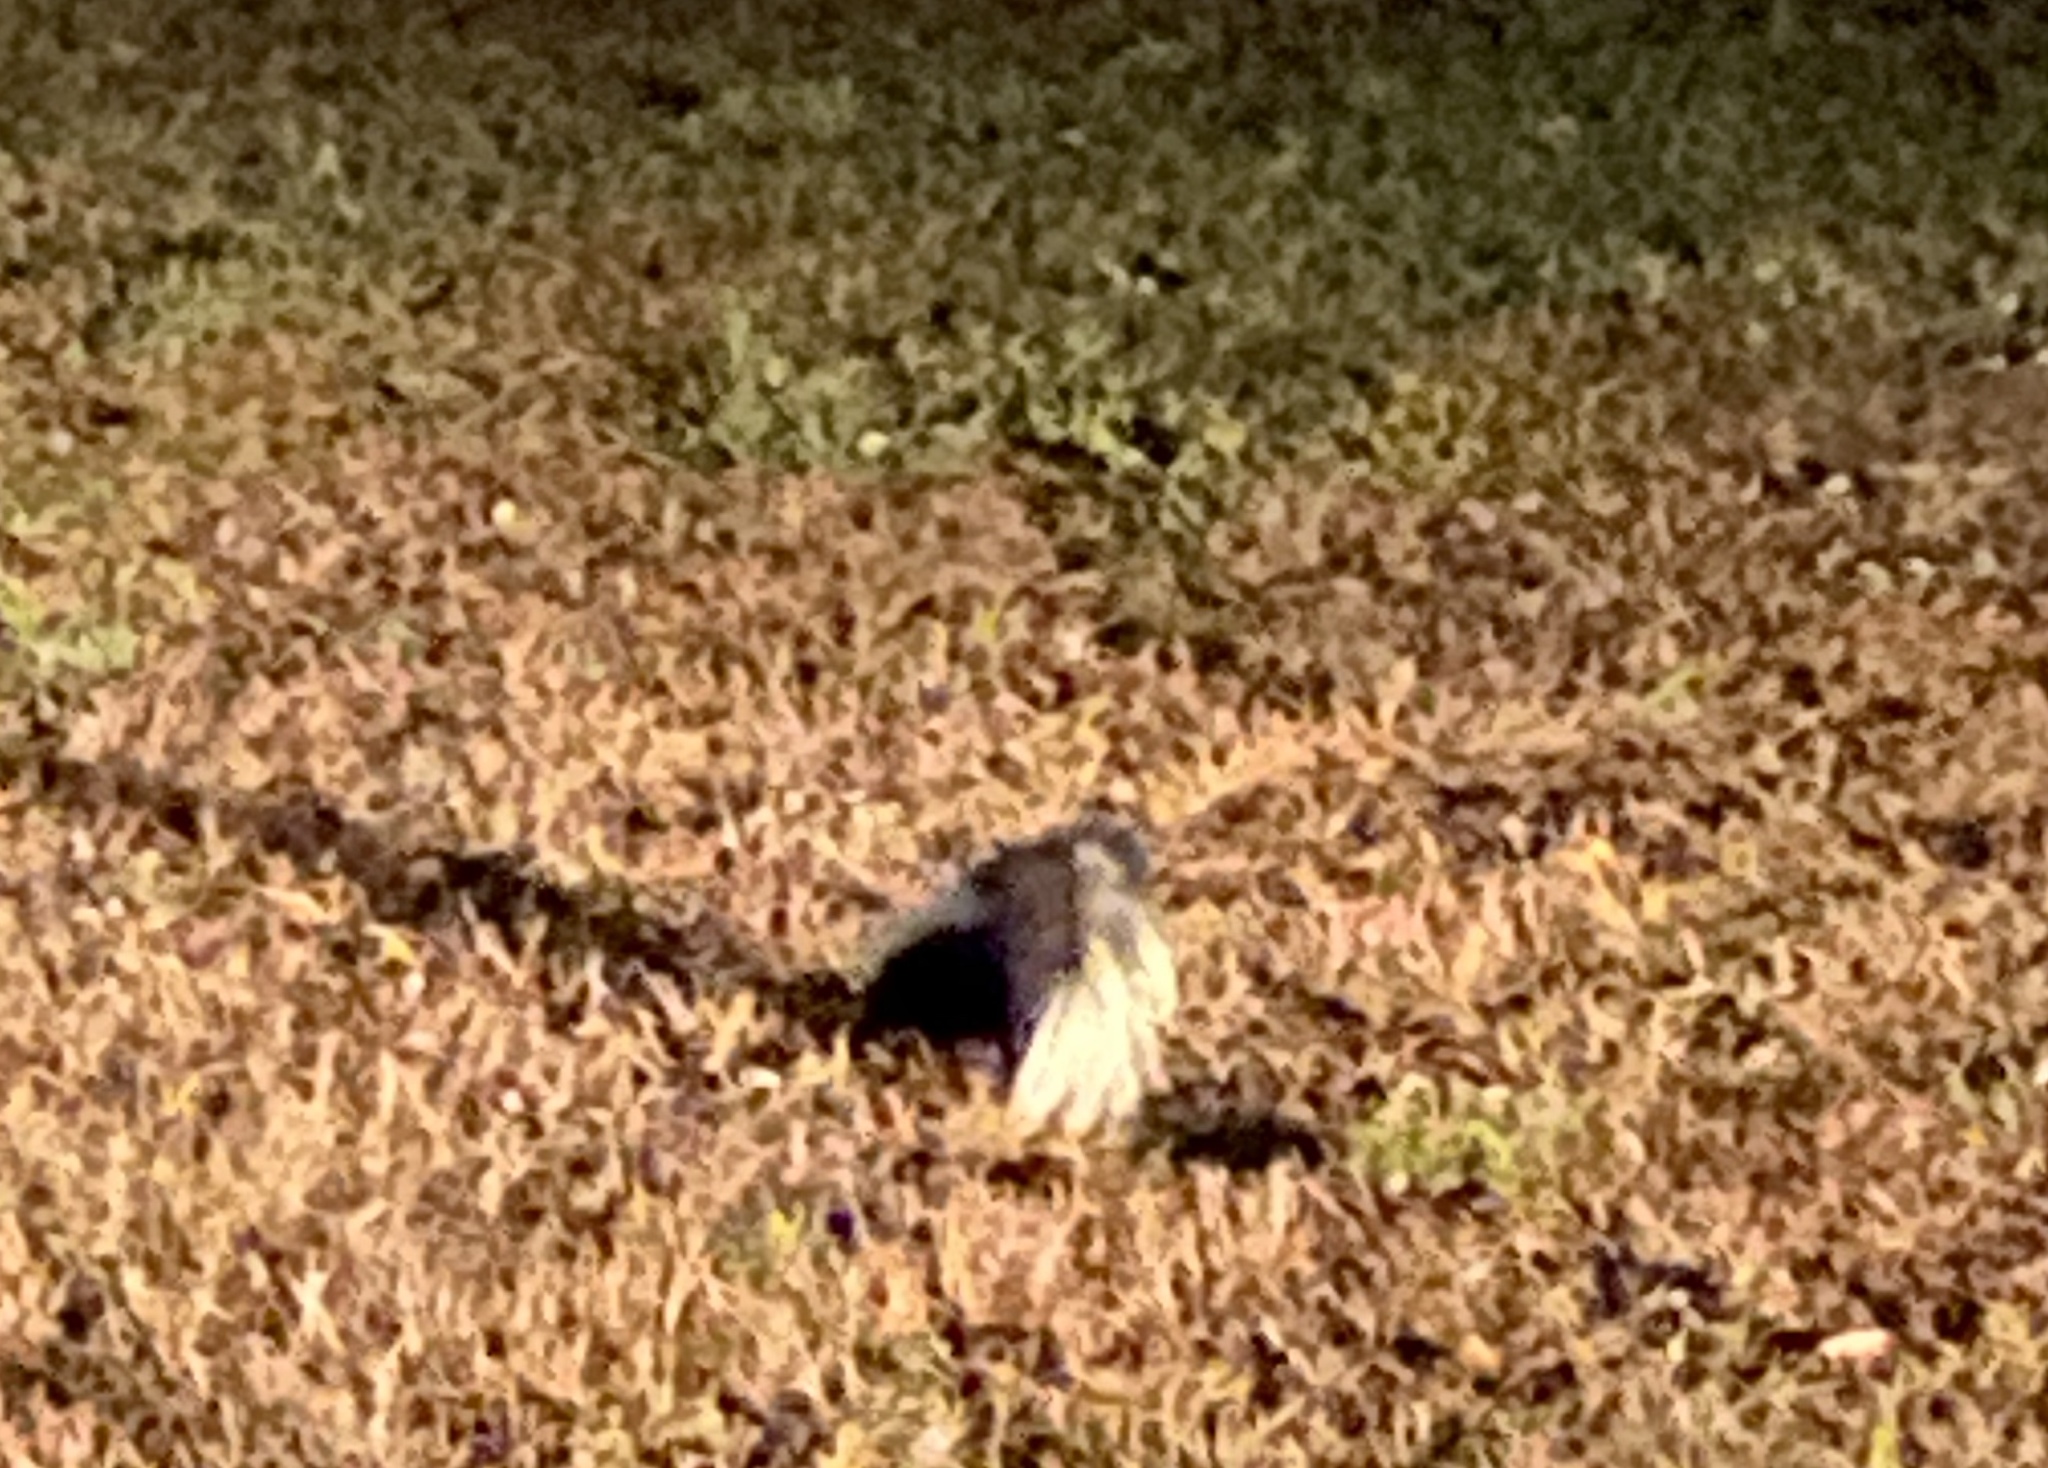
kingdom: Animalia
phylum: Chordata
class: Mammalia
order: Carnivora
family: Mephitidae
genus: Mephitis
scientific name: Mephitis mephitis
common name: Striped skunk
